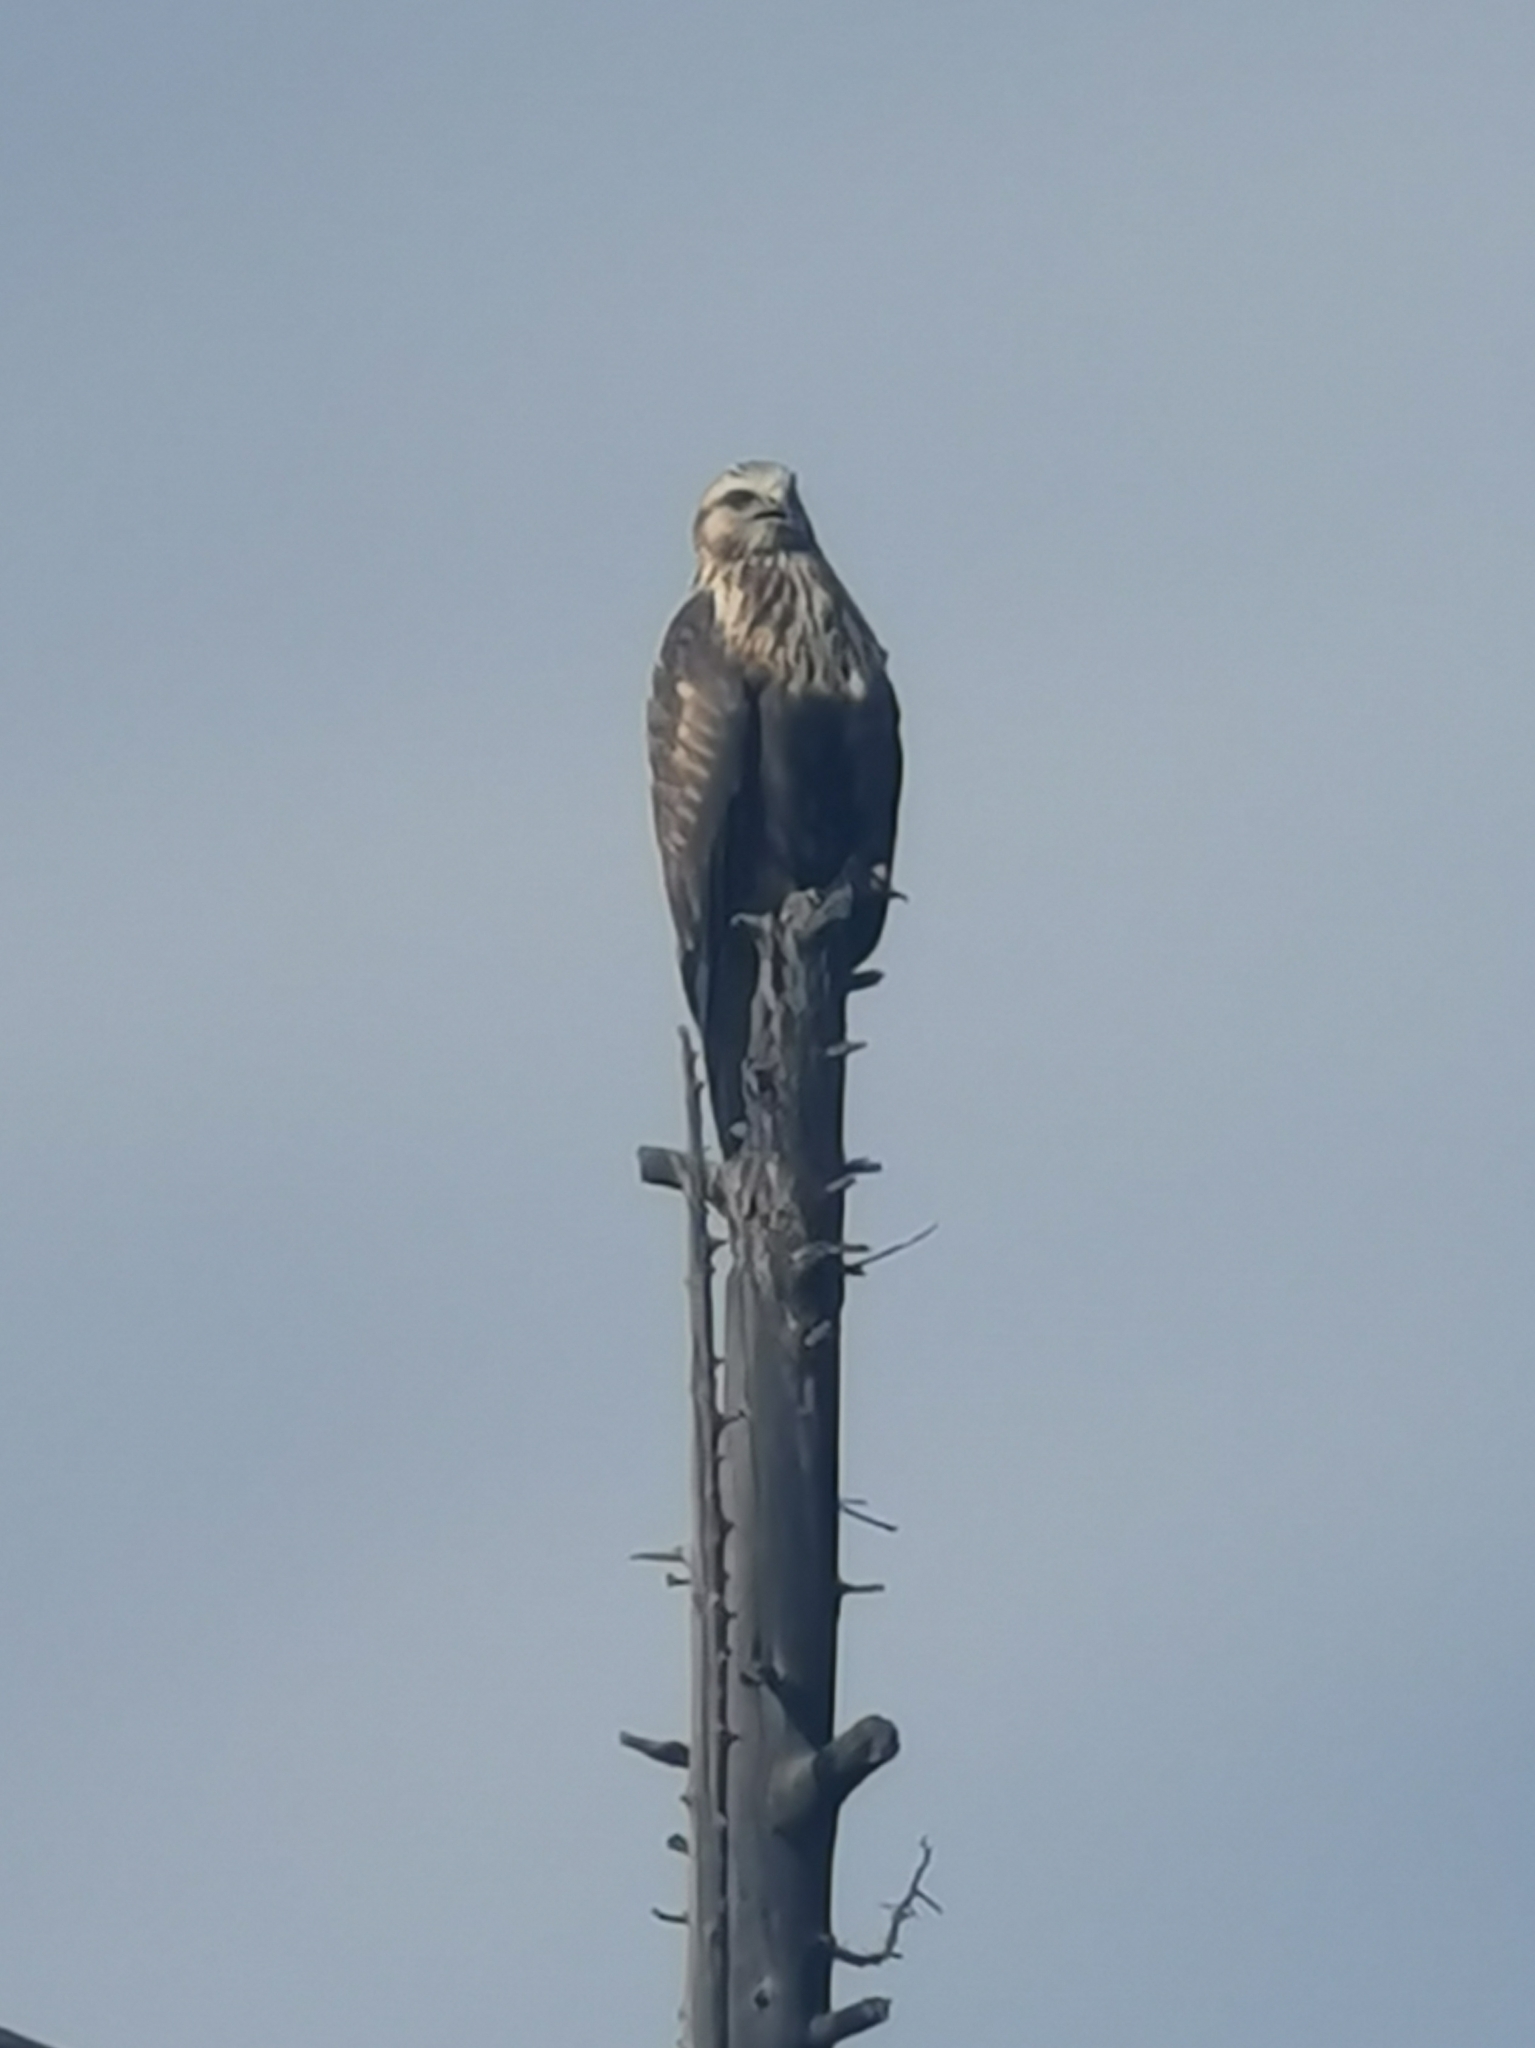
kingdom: Animalia
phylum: Chordata
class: Aves
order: Accipitriformes
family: Accipitridae
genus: Buteo
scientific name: Buteo lagopus
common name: Rough-legged buzzard
